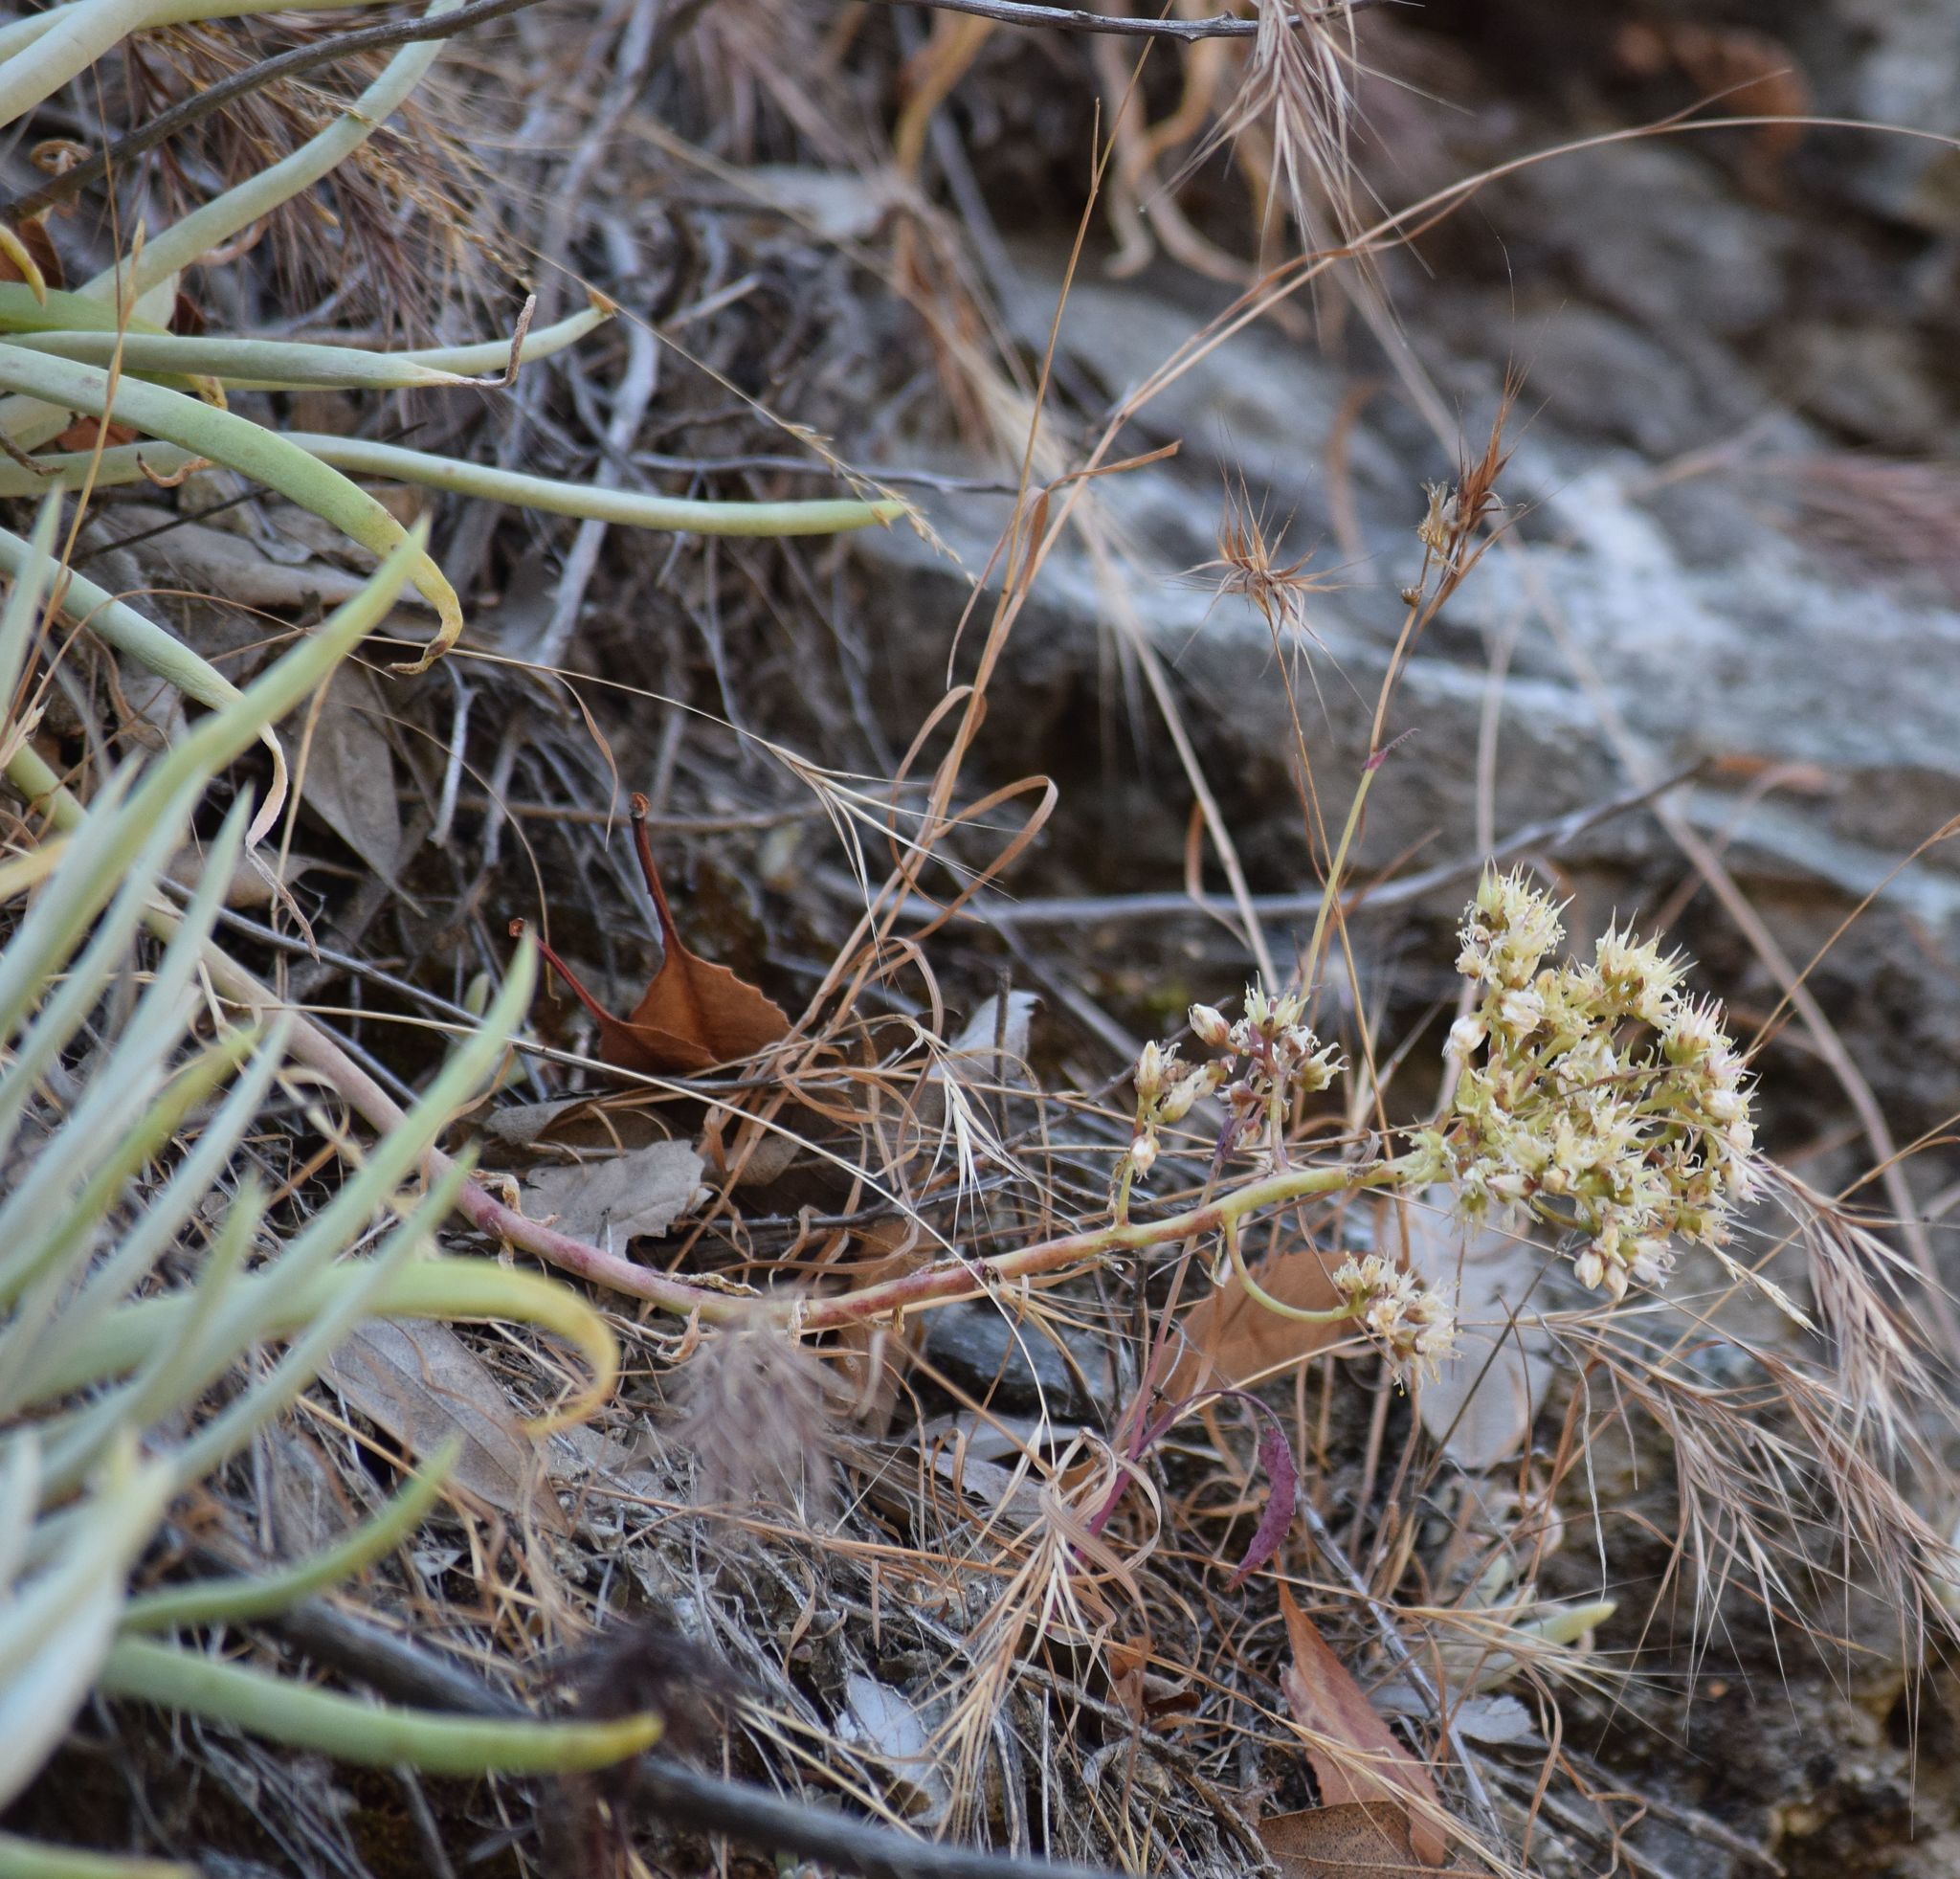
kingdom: Plantae
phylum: Tracheophyta
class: Magnoliopsida
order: Saxifragales
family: Crassulaceae
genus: Dudleya
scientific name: Dudleya densiflora
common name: San gabriel mountains dudleya
